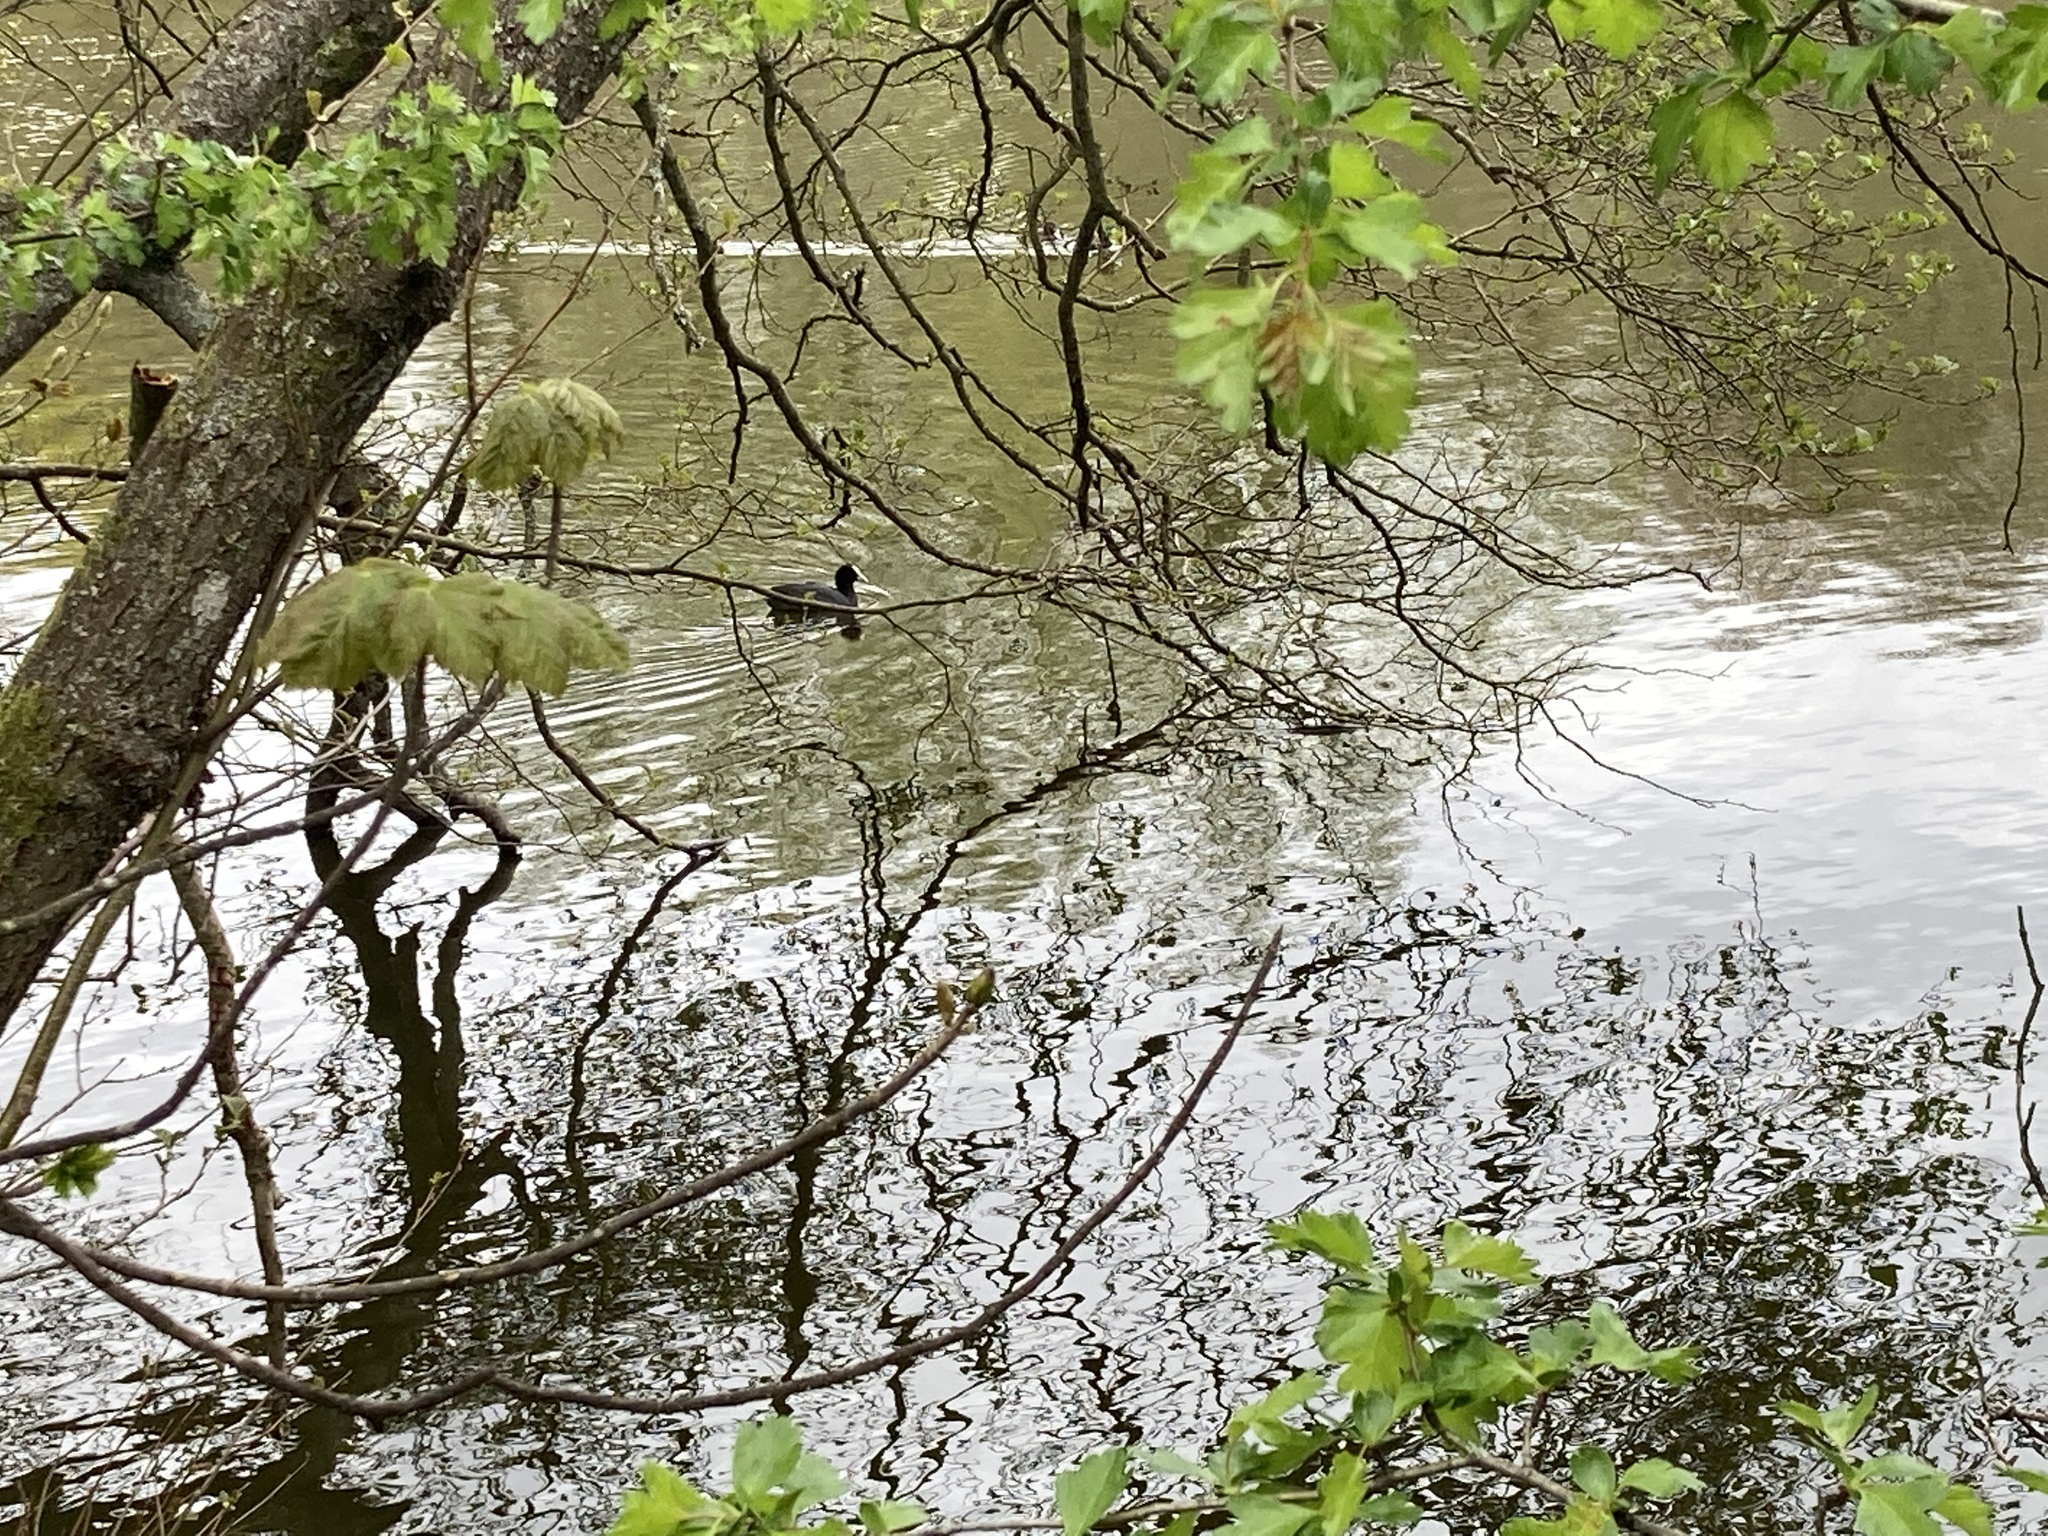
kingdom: Animalia
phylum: Chordata
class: Aves
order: Gruiformes
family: Rallidae
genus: Fulica
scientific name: Fulica atra
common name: Eurasian coot
